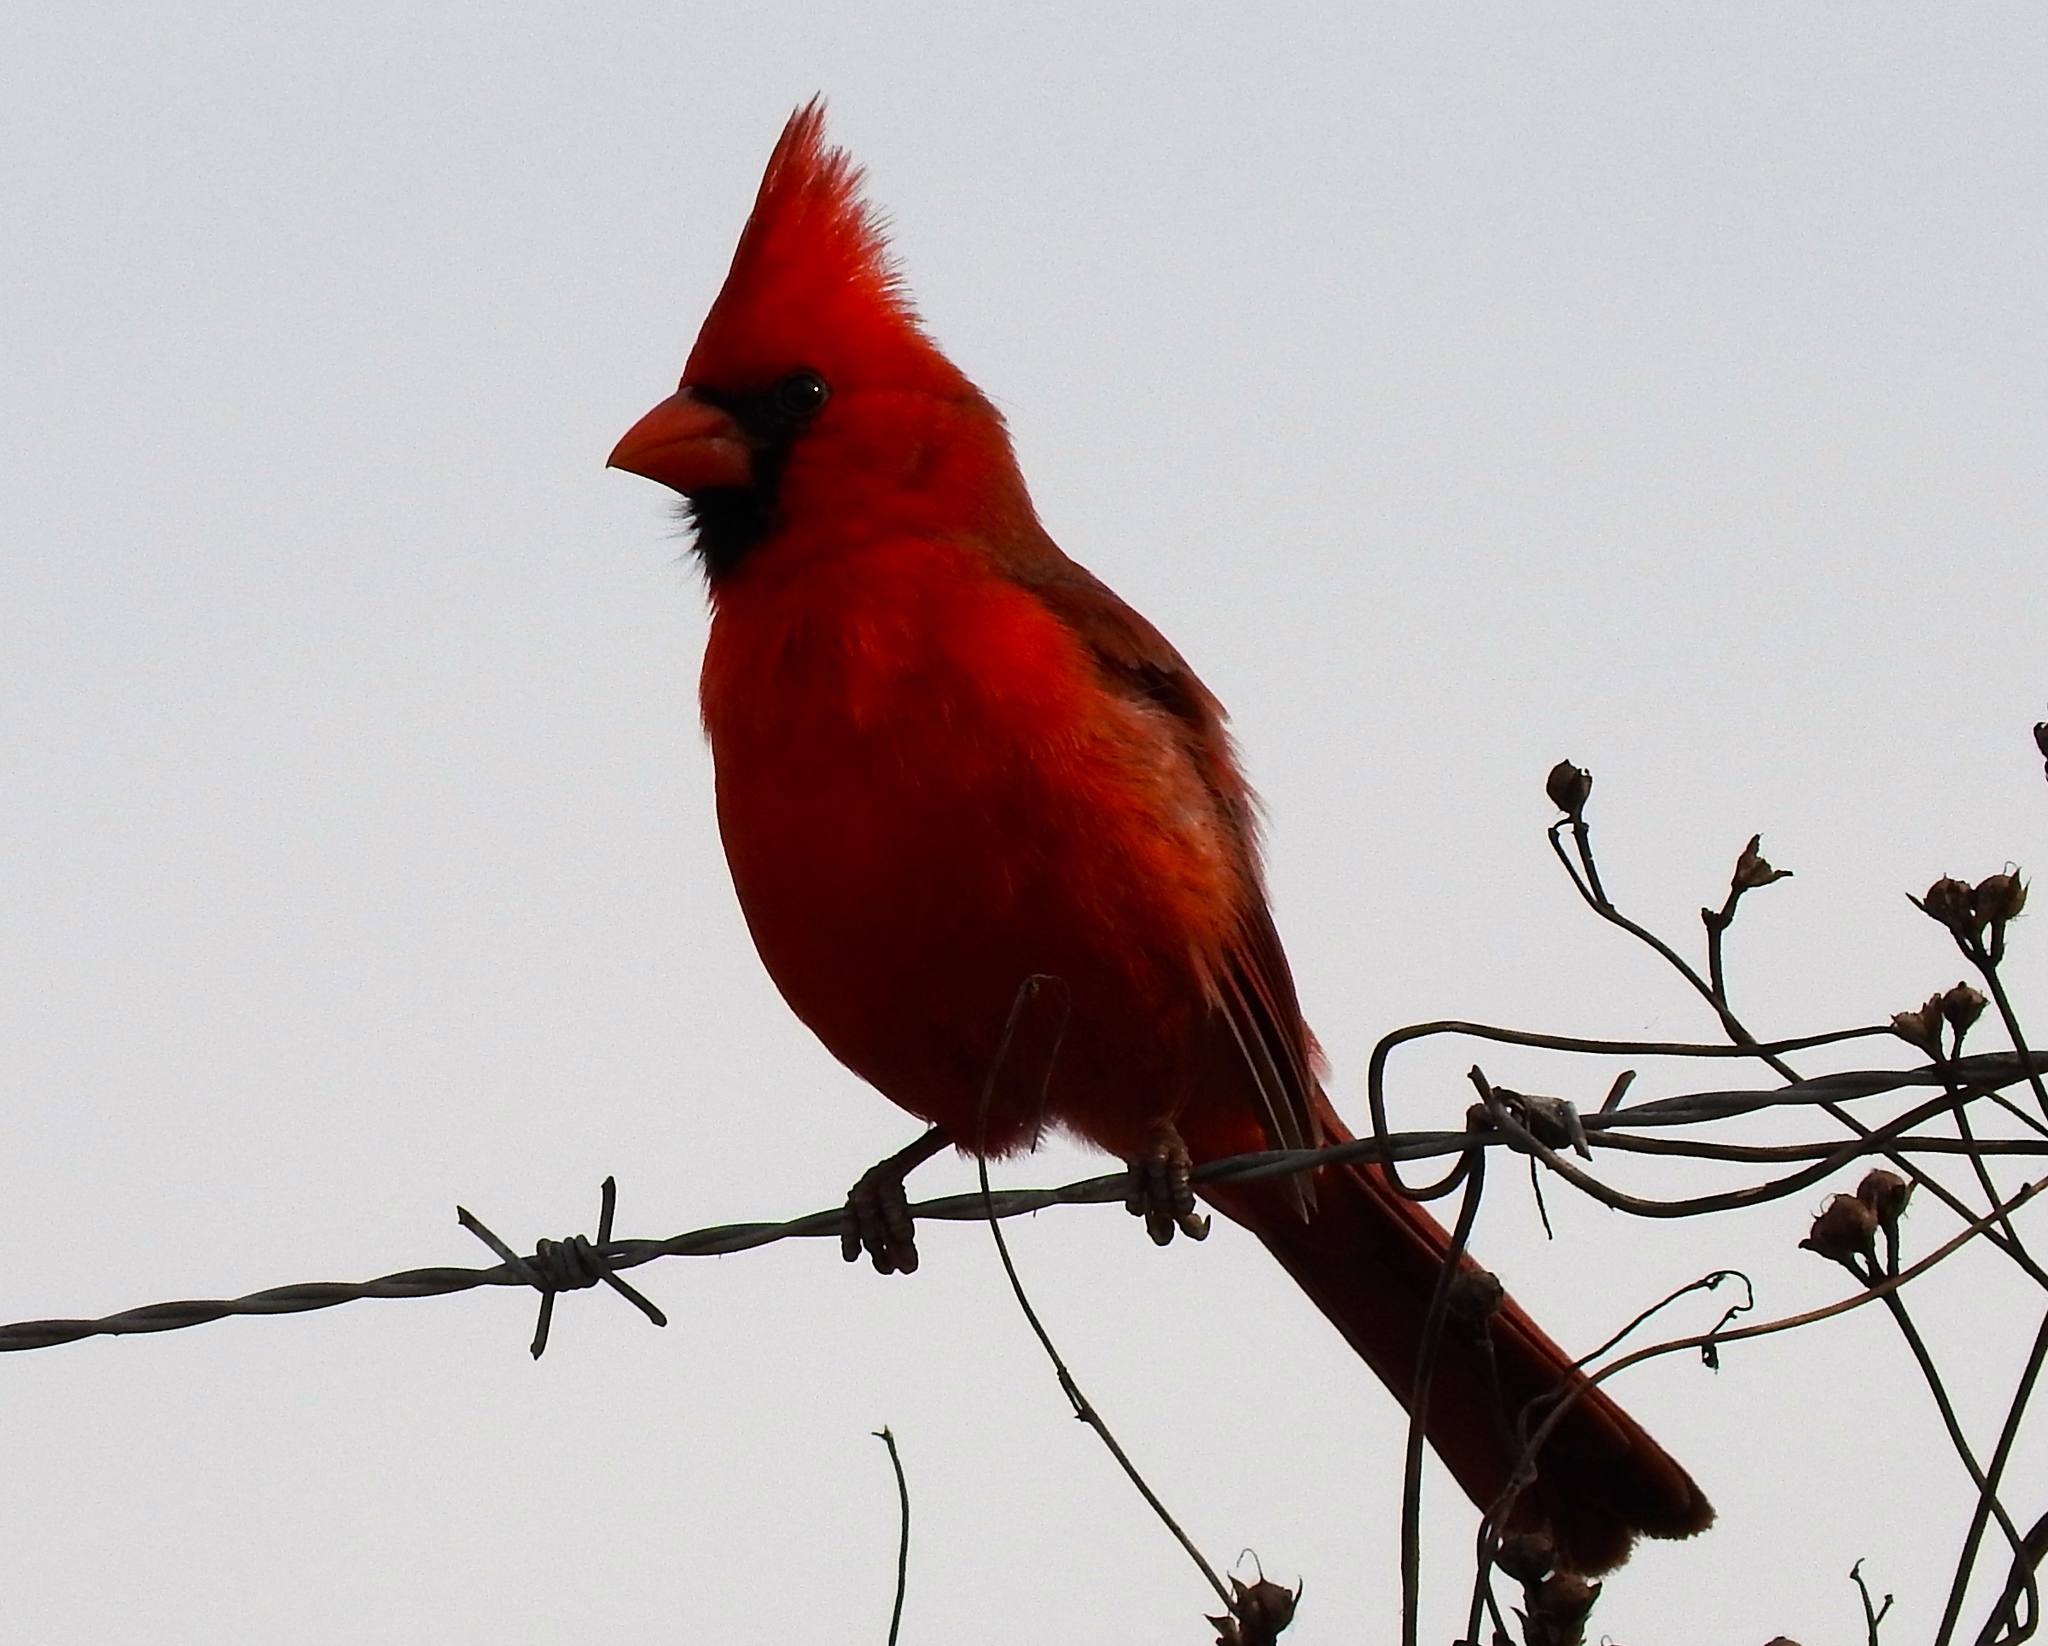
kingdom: Animalia
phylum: Chordata
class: Aves
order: Passeriformes
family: Cardinalidae
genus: Cardinalis
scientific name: Cardinalis cardinalis
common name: Northern cardinal
